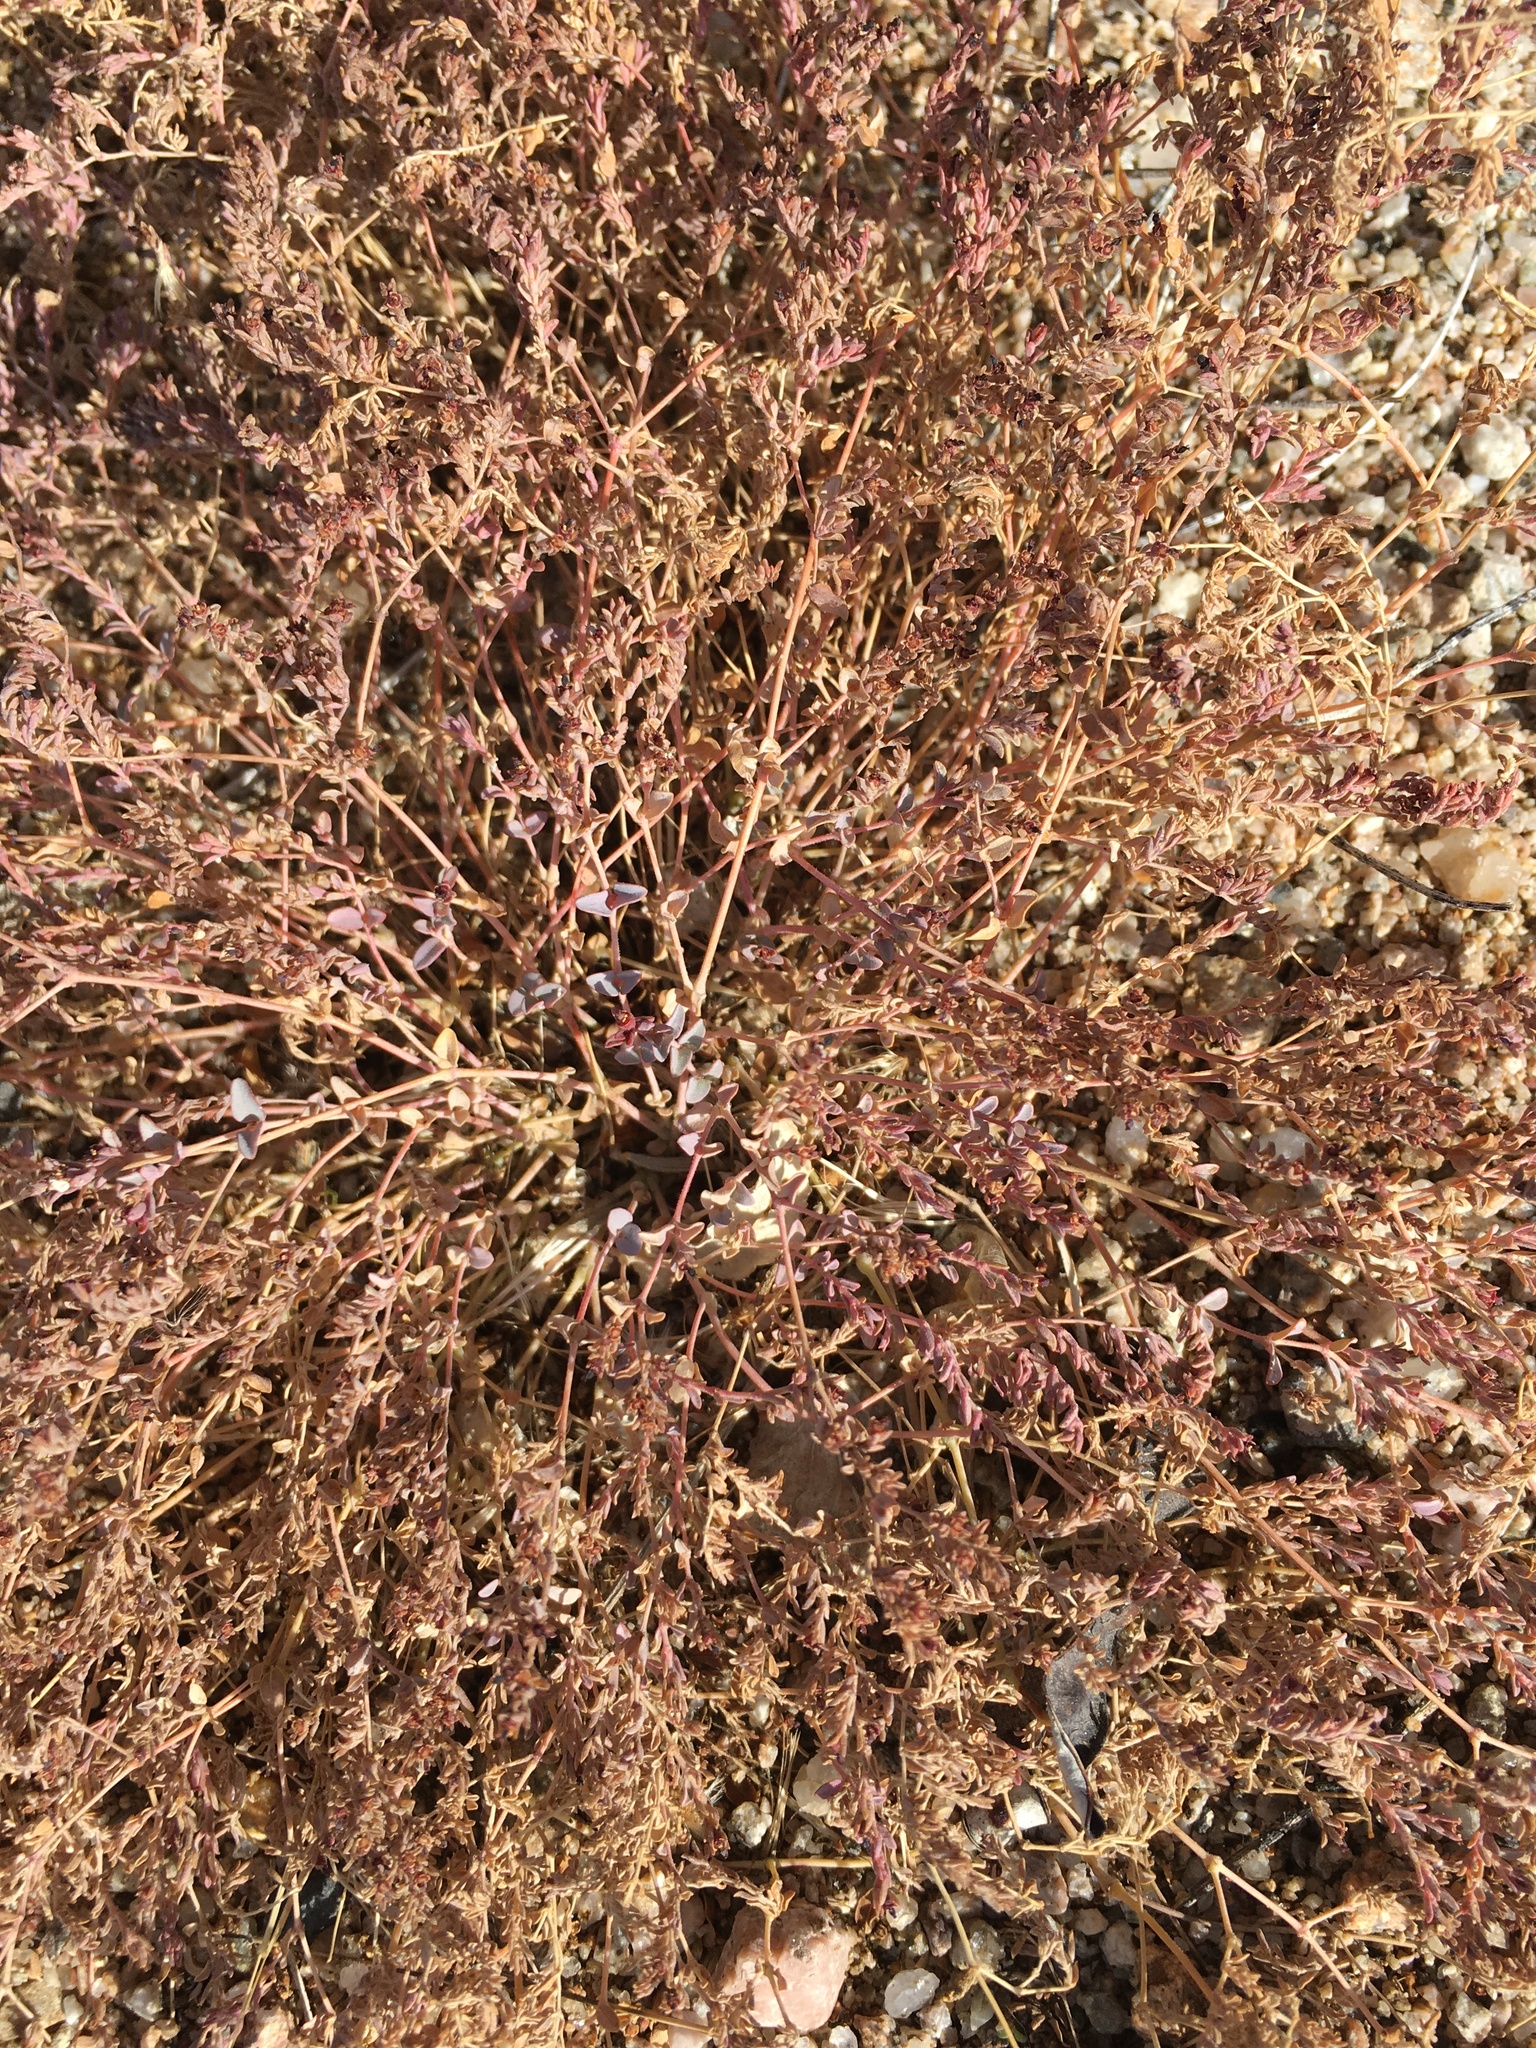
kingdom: Plantae
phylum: Tracheophyta
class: Magnoliopsida
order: Malpighiales
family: Euphorbiaceae
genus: Euphorbia
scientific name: Euphorbia polycarpa
